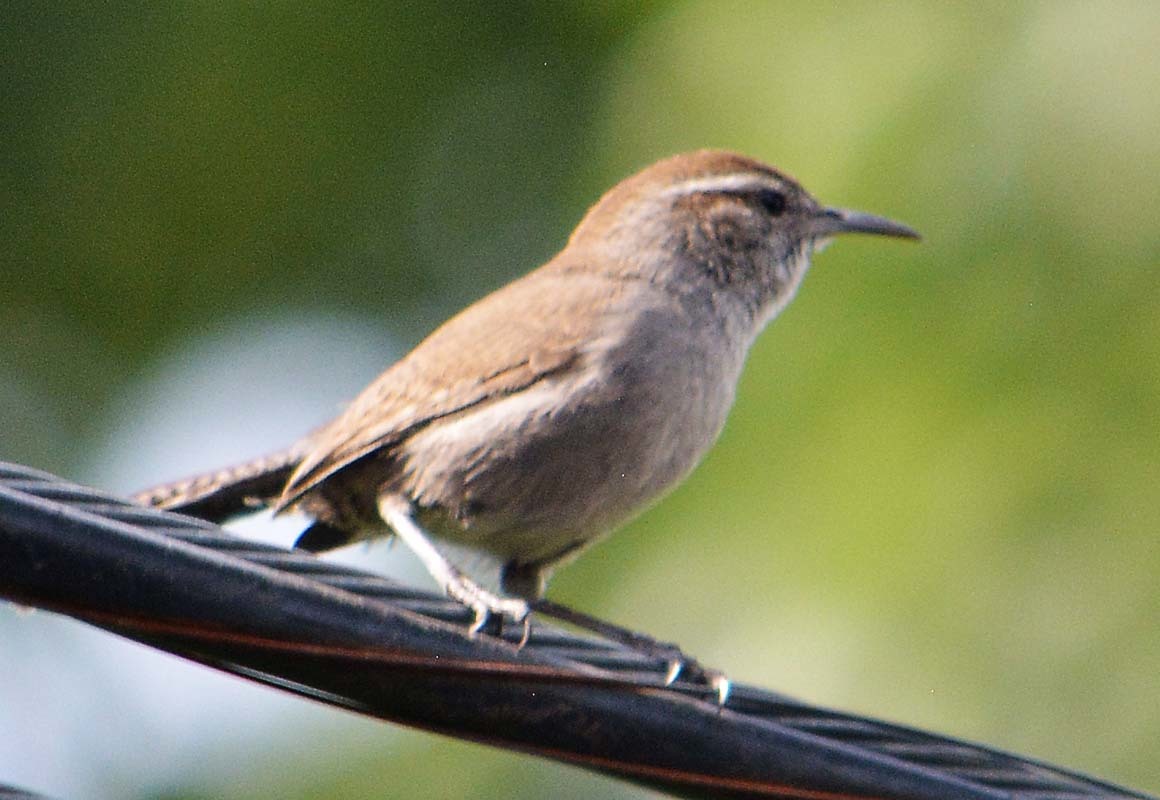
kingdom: Animalia
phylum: Chordata
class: Aves
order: Passeriformes
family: Troglodytidae
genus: Thryomanes
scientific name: Thryomanes bewickii
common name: Bewick's wren
